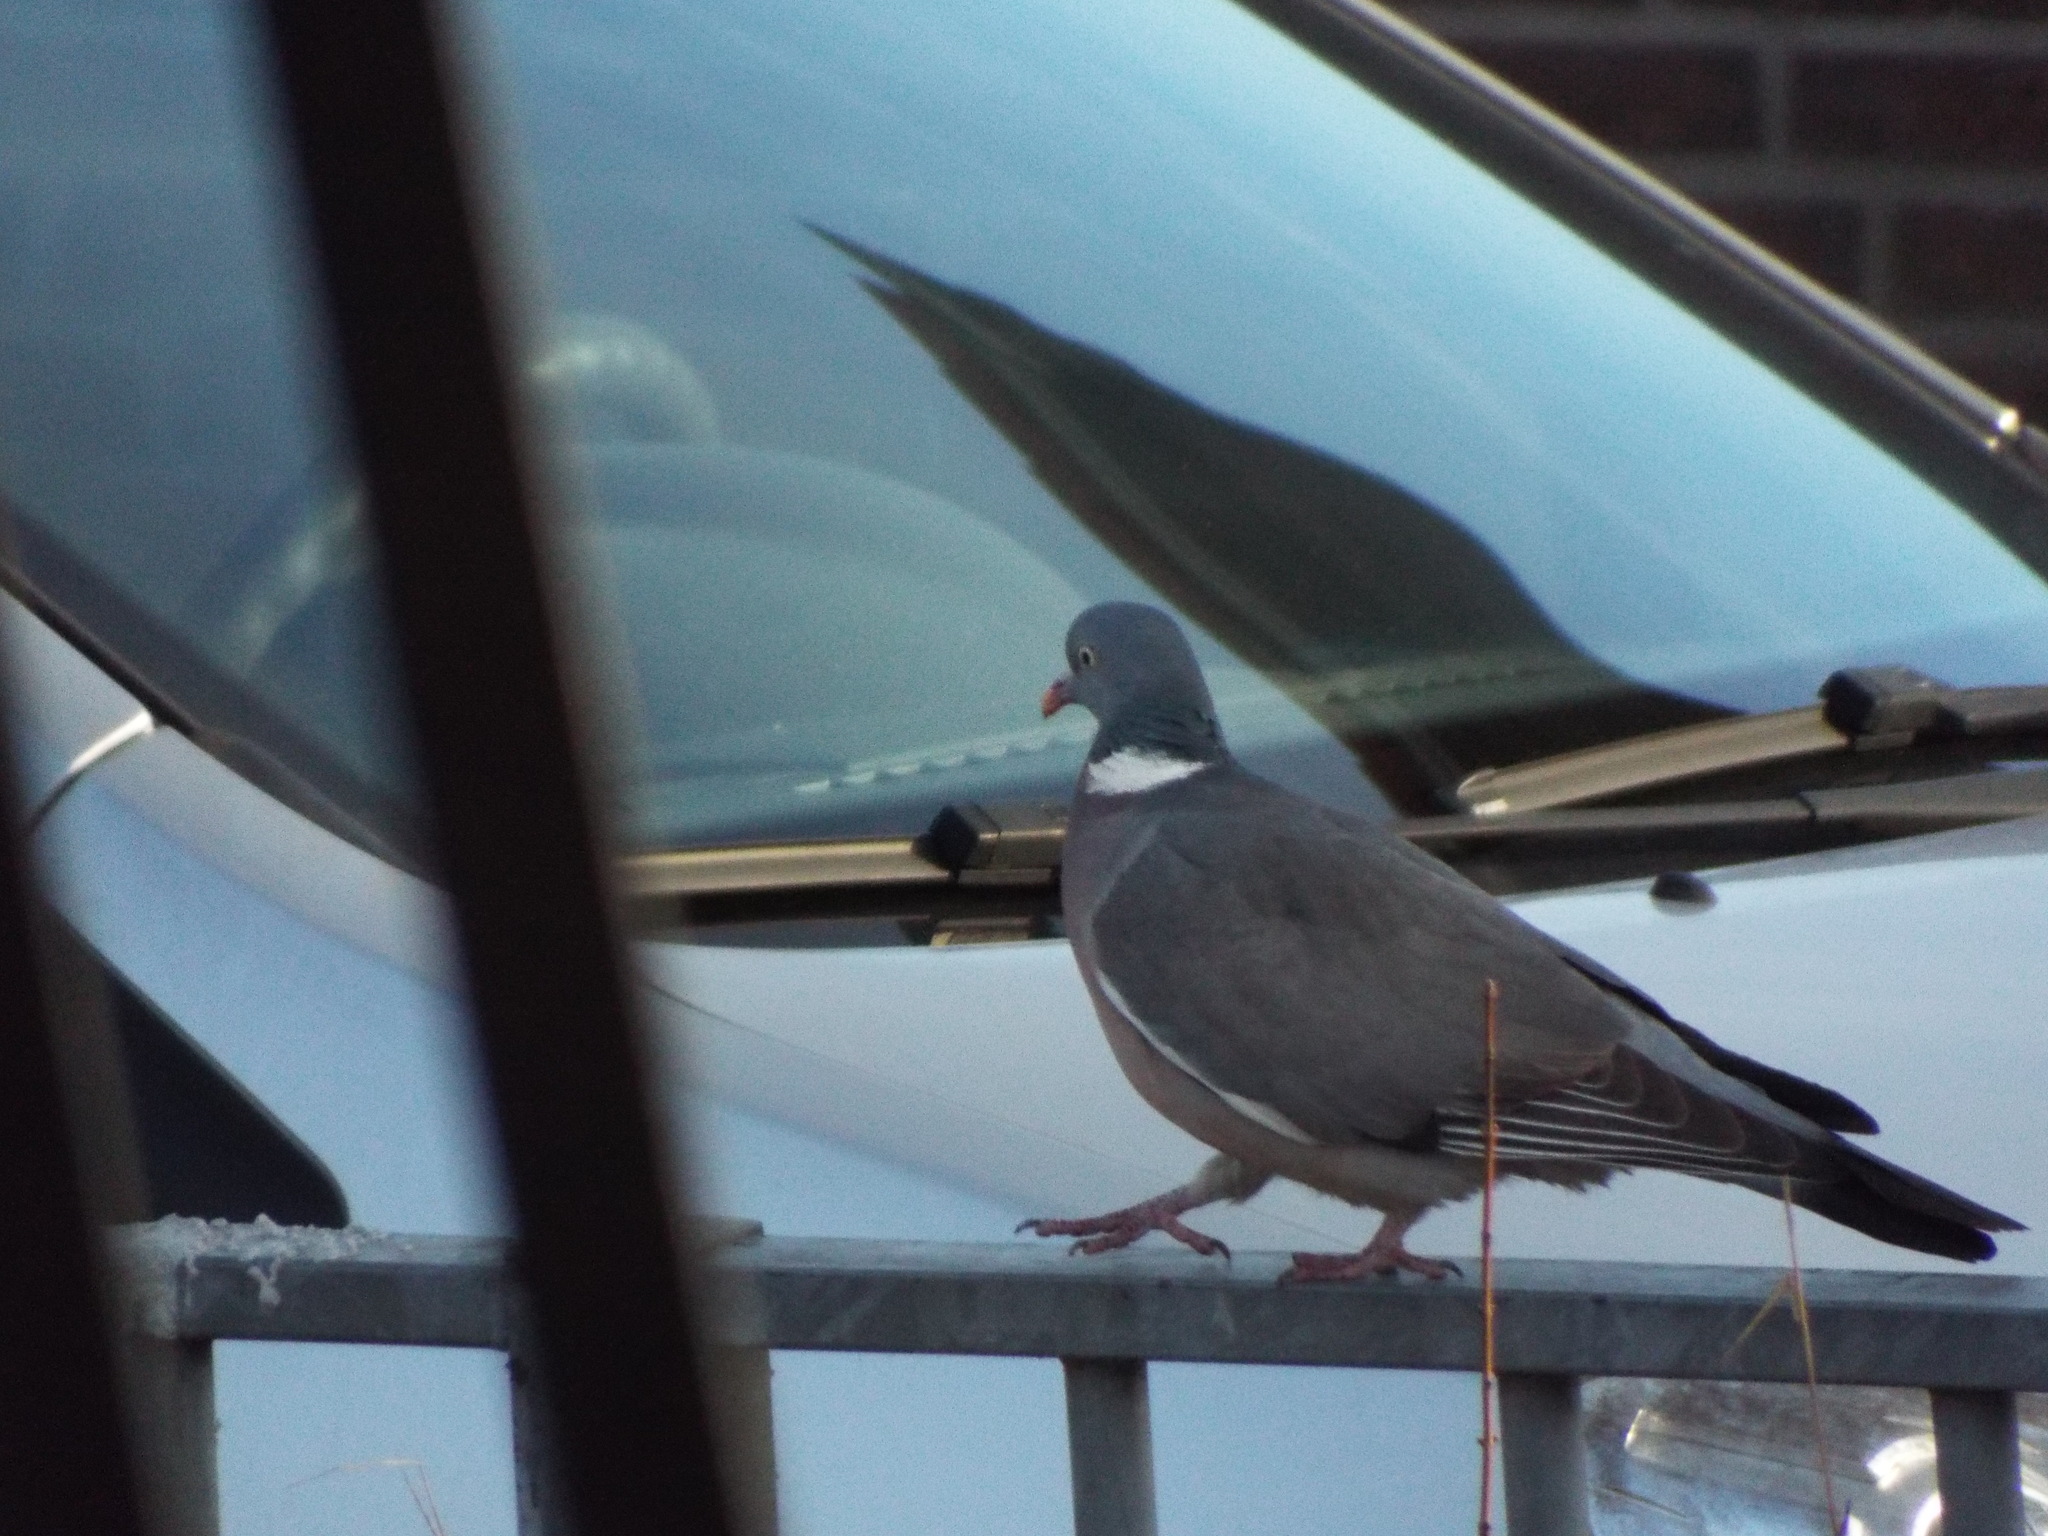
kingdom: Animalia
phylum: Chordata
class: Aves
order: Columbiformes
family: Columbidae
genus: Columba
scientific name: Columba palumbus
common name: Common wood pigeon
